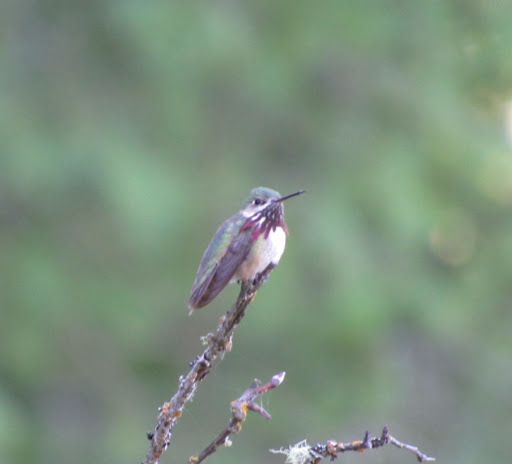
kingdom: Animalia
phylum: Chordata
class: Aves
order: Apodiformes
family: Trochilidae
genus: Selasphorus
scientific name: Selasphorus calliope
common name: Calliope hummingbird
